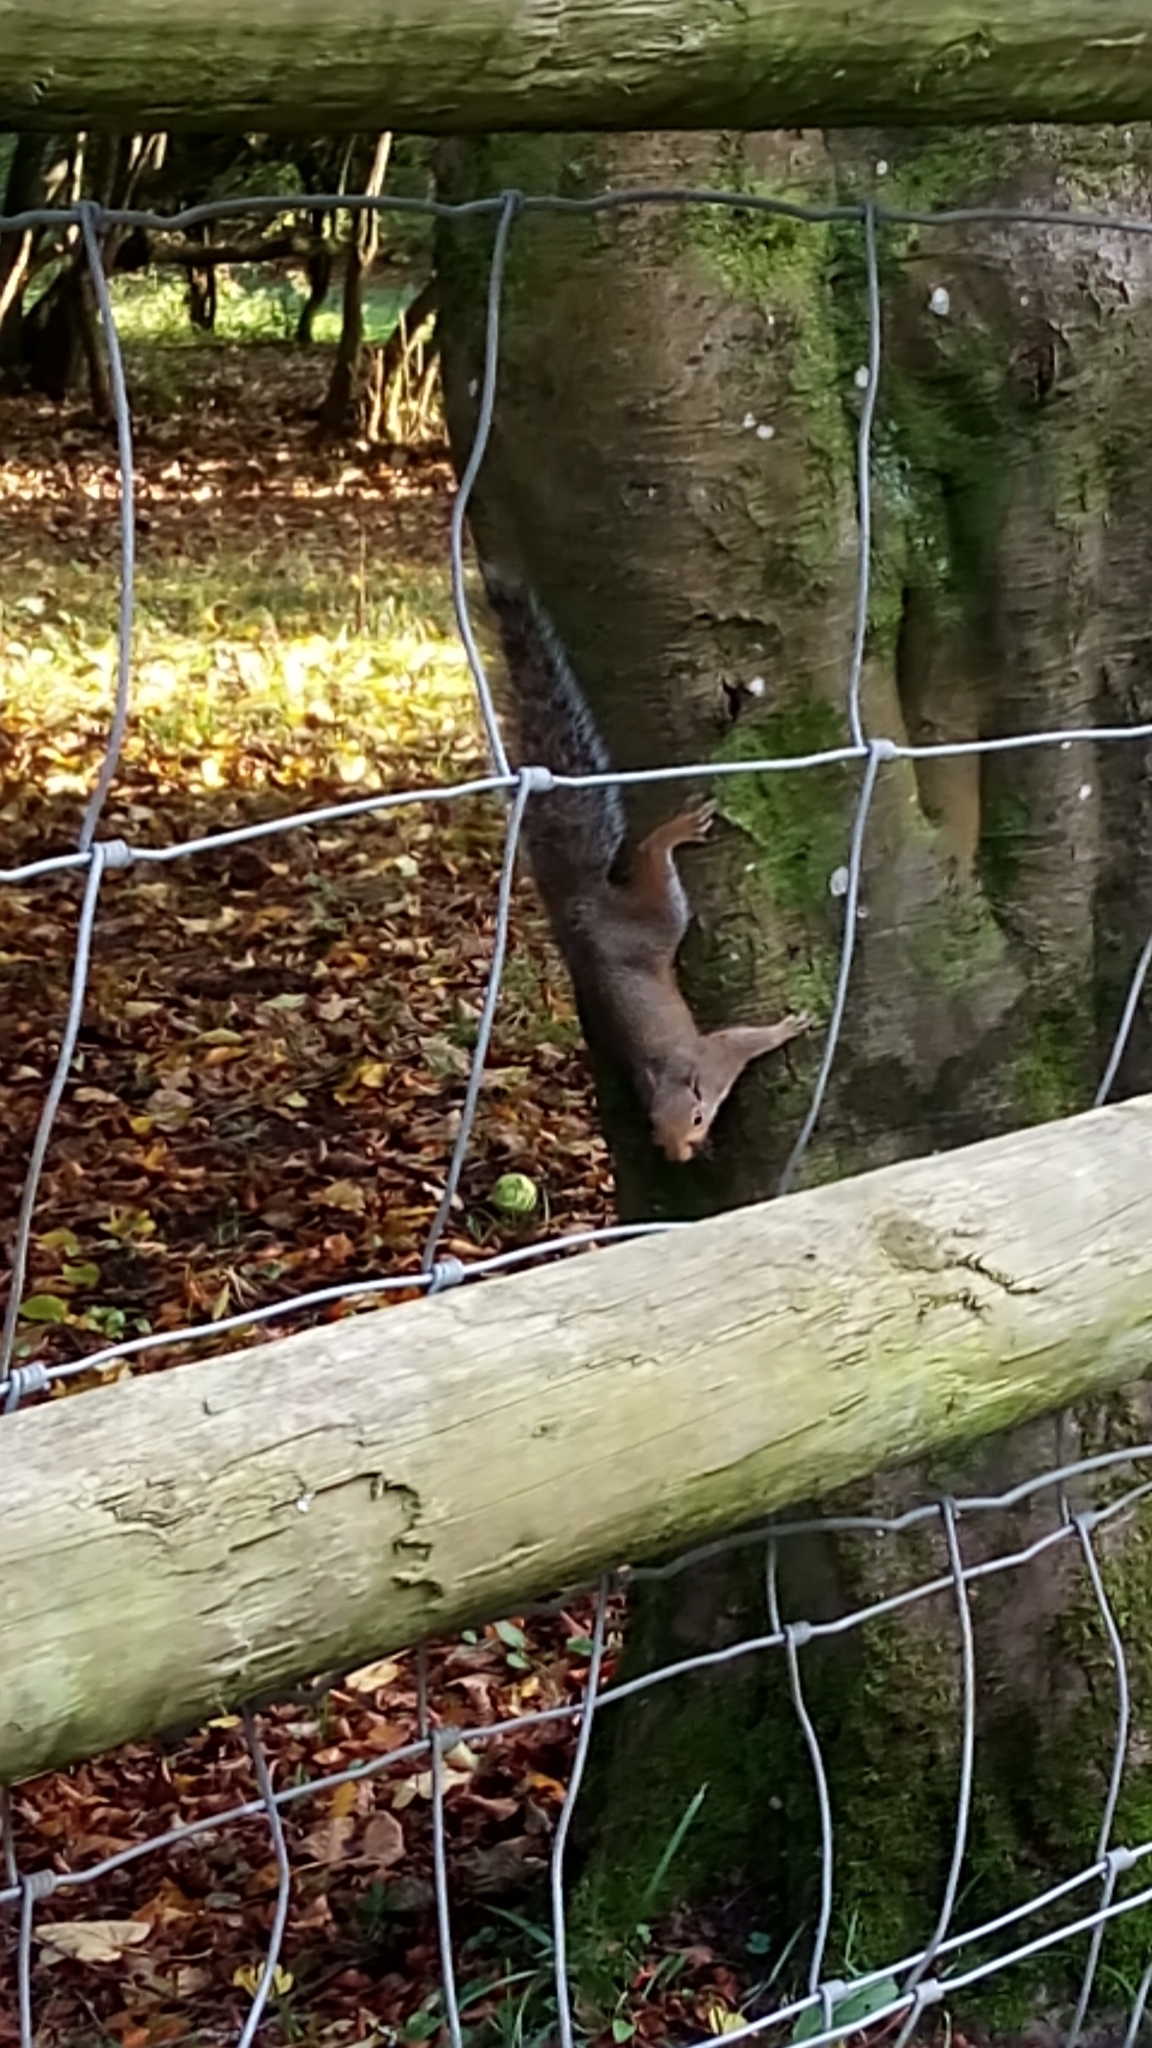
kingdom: Animalia
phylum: Chordata
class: Mammalia
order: Rodentia
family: Sciuridae
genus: Sciurus
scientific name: Sciurus carolinensis
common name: Eastern gray squirrel
